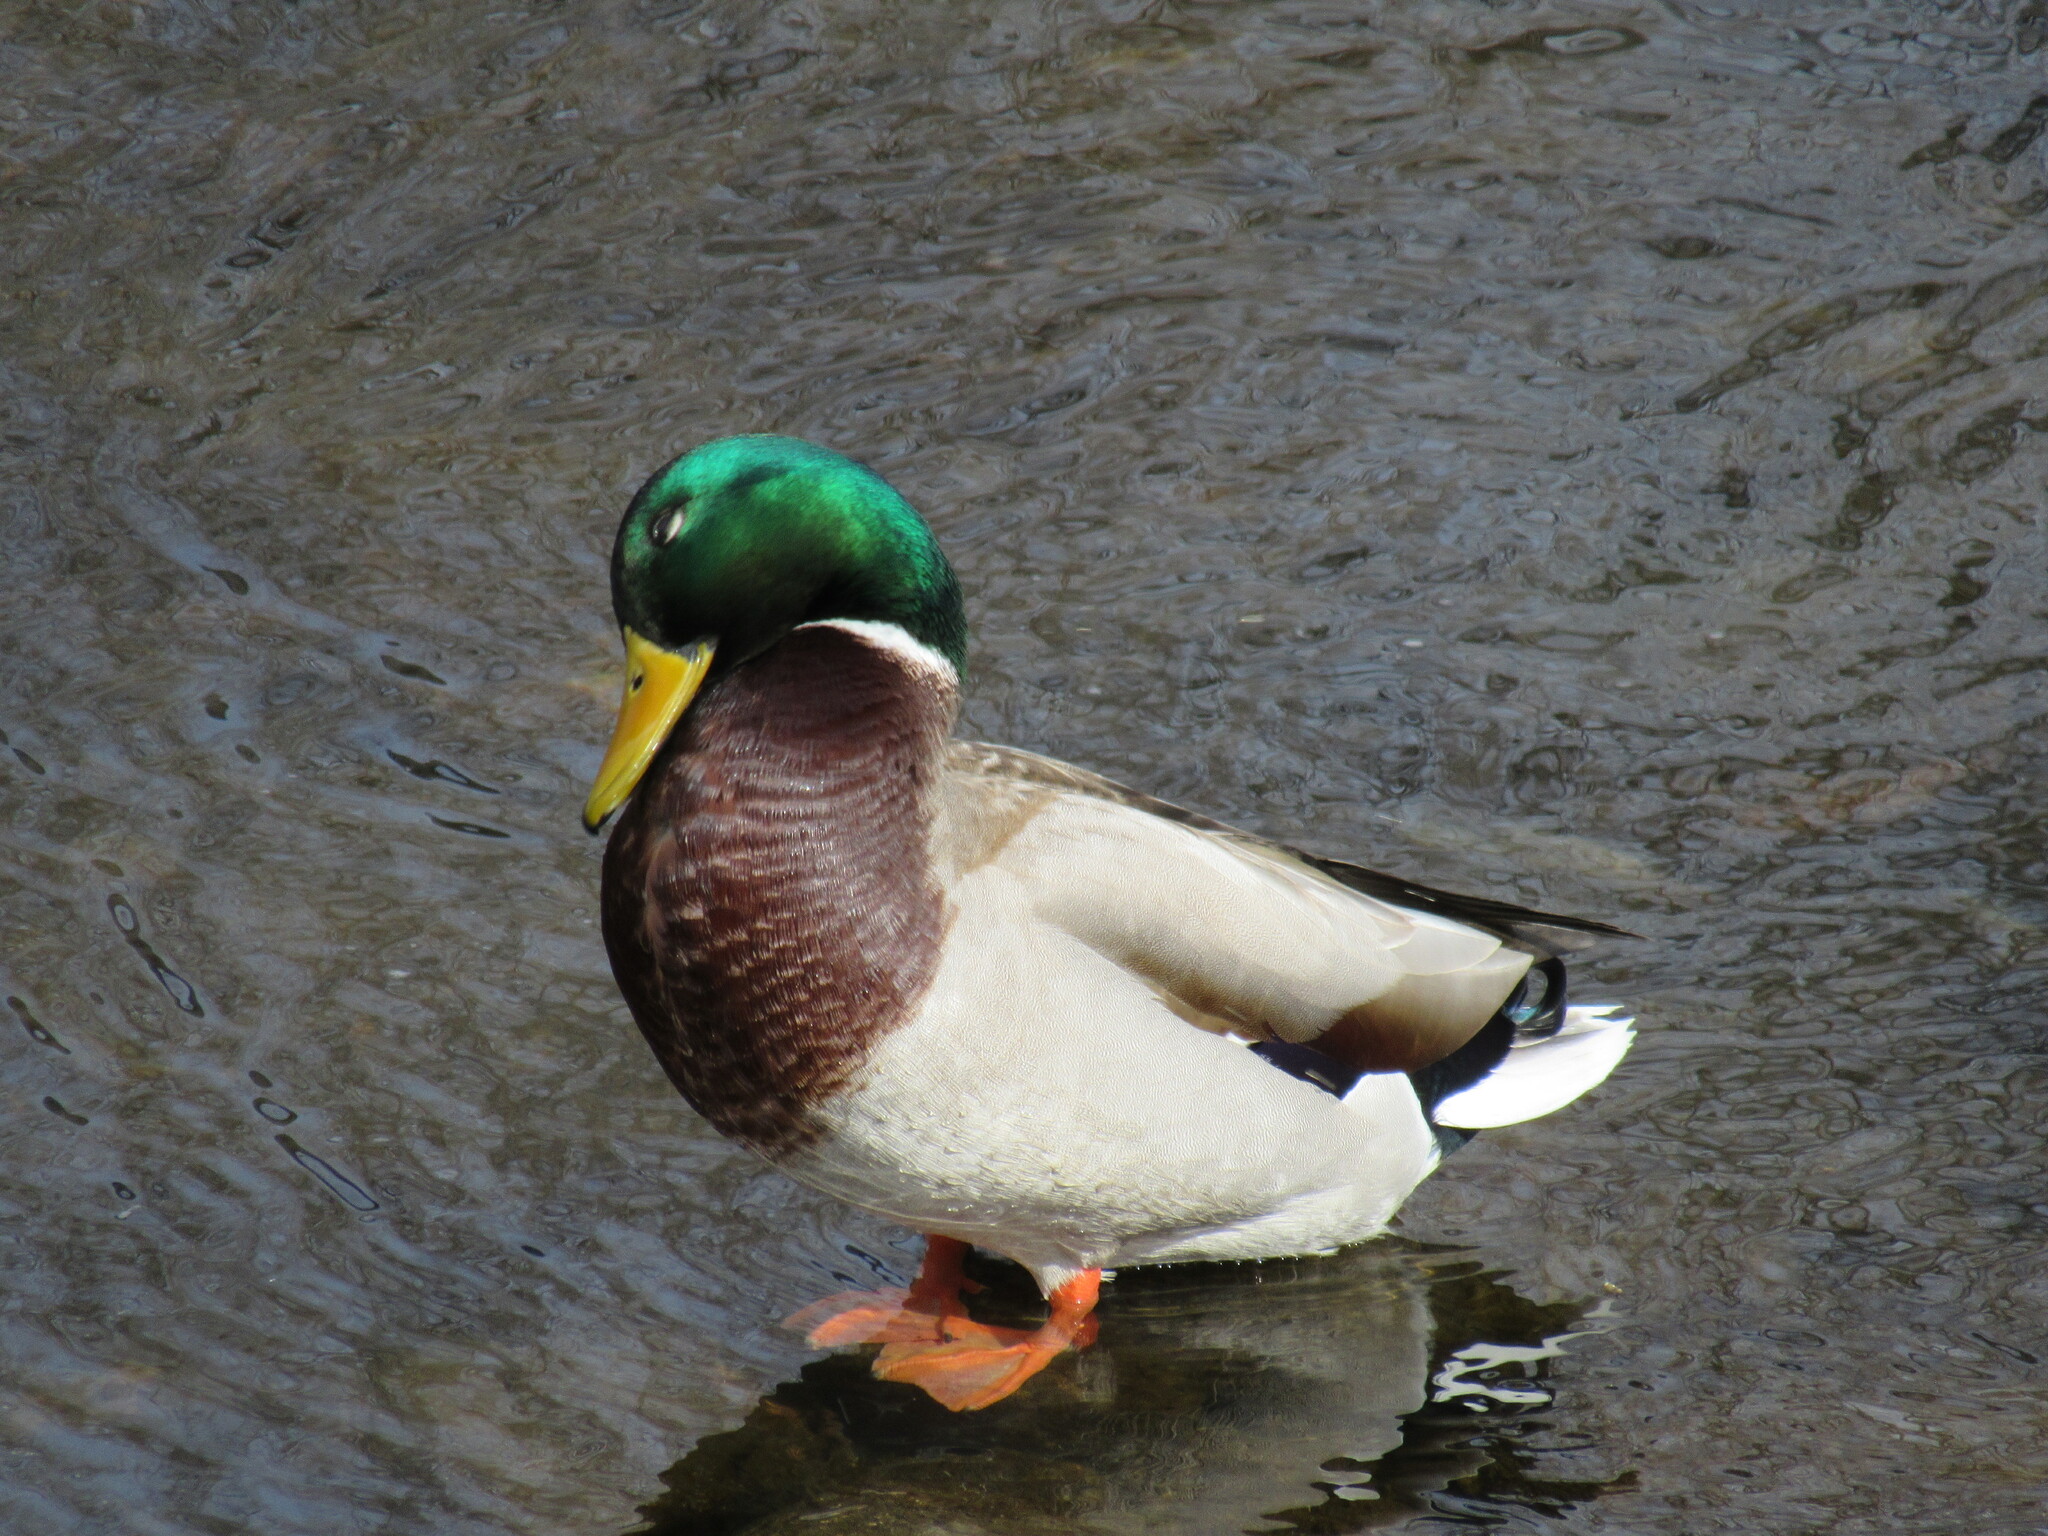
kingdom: Animalia
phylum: Chordata
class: Aves
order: Anseriformes
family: Anatidae
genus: Anas
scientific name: Anas platyrhynchos
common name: Mallard
